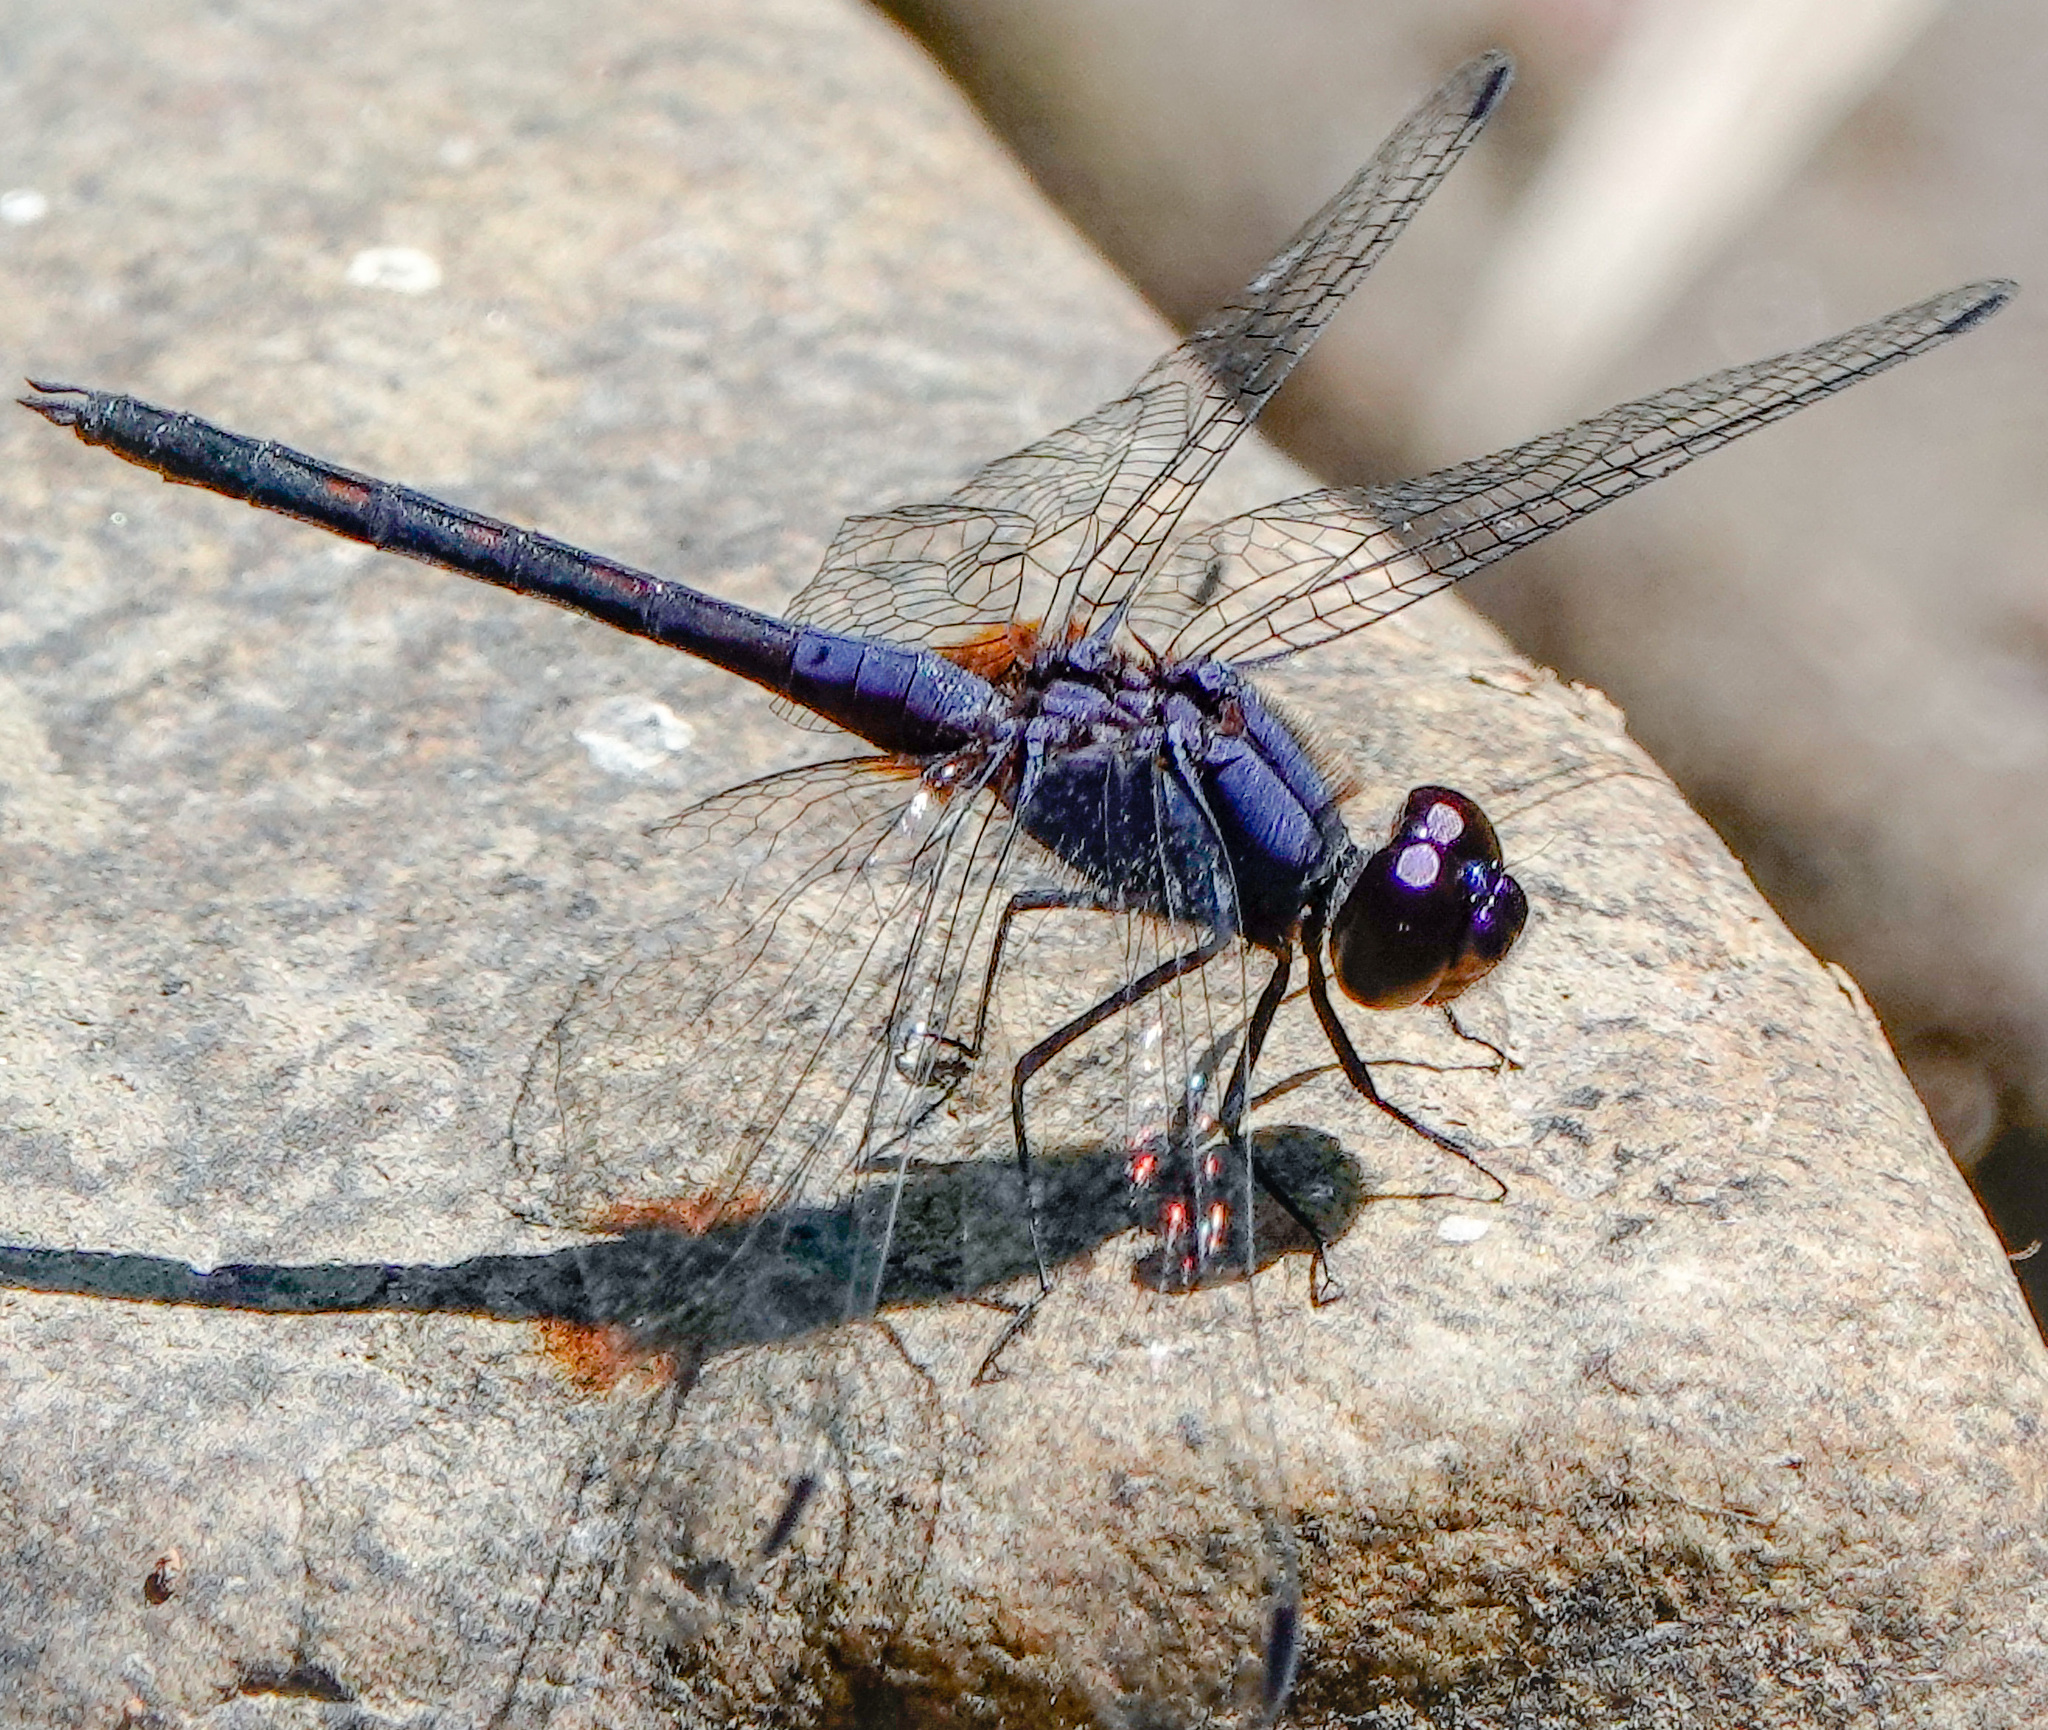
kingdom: Animalia
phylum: Arthropoda
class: Insecta
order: Odonata
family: Libellulidae
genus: Trithemis
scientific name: Trithemis festiva
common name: Indigo dropwing
